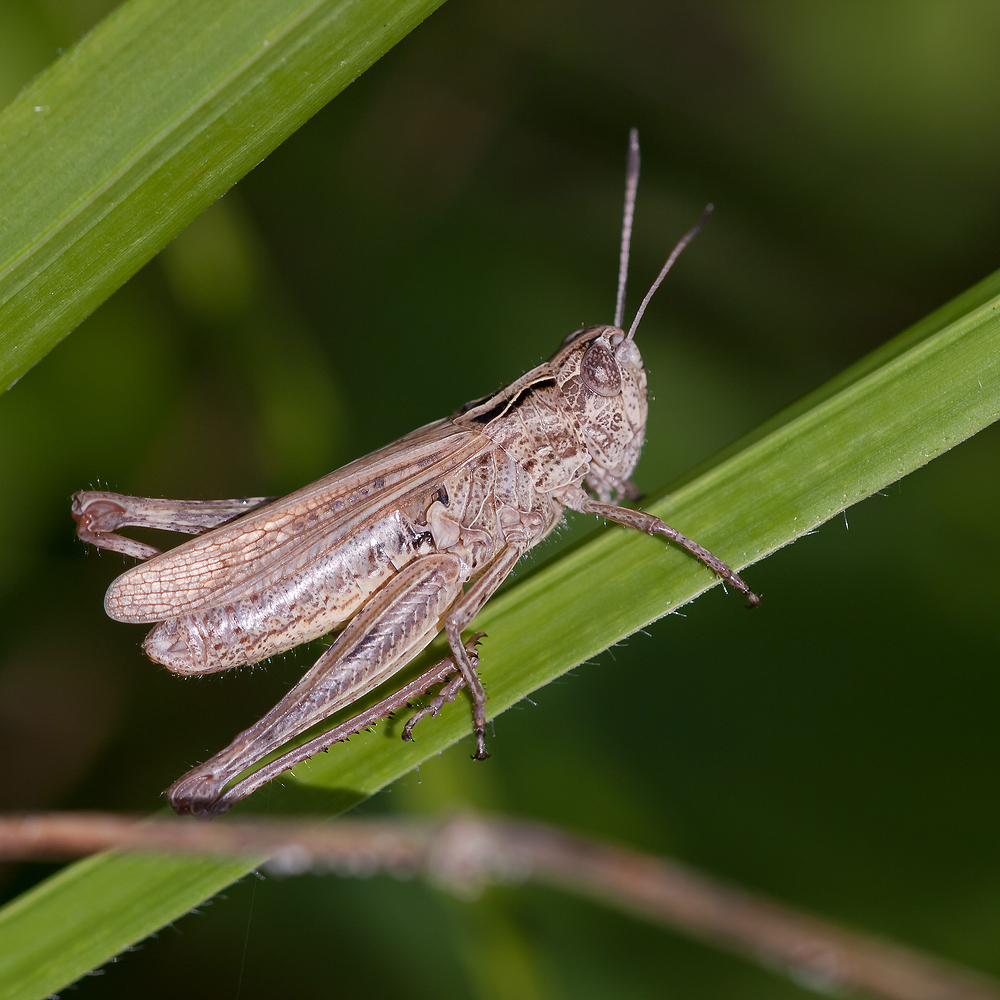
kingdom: Animalia
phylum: Arthropoda
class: Insecta
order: Orthoptera
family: Acrididae
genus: Gomphocerippus
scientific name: Gomphocerippus rufus
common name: Rufous grasshopper
